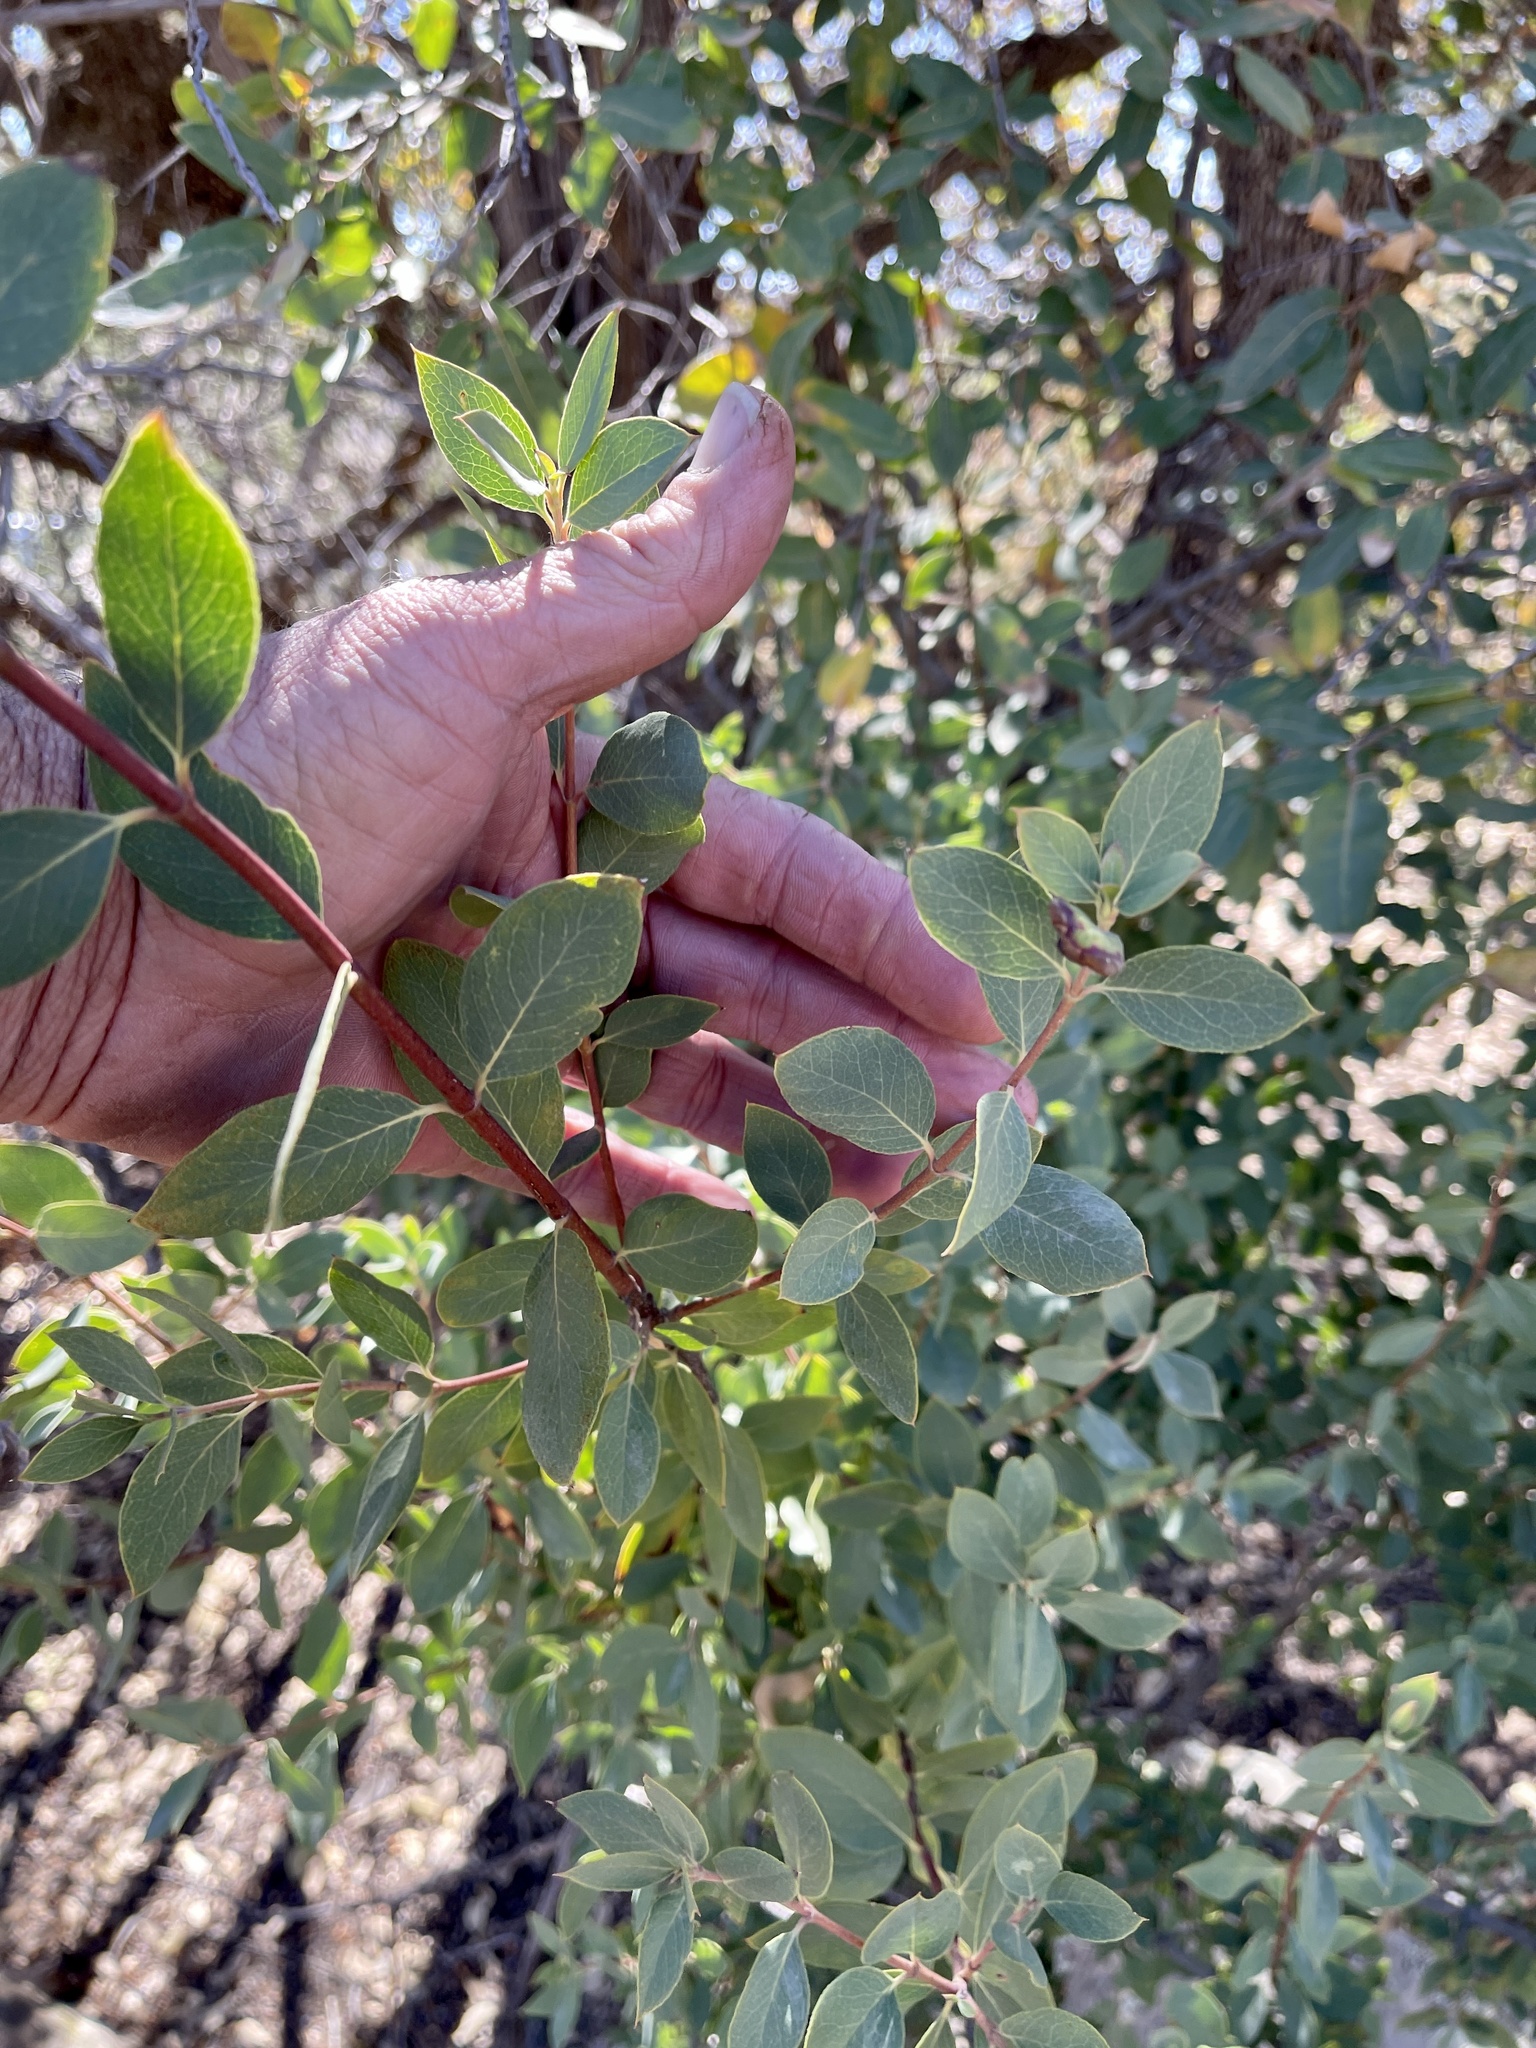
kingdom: Plantae
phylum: Tracheophyta
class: Magnoliopsida
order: Fagales
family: Fagaceae
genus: Quercus
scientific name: Quercus grisea
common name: Gray oak
